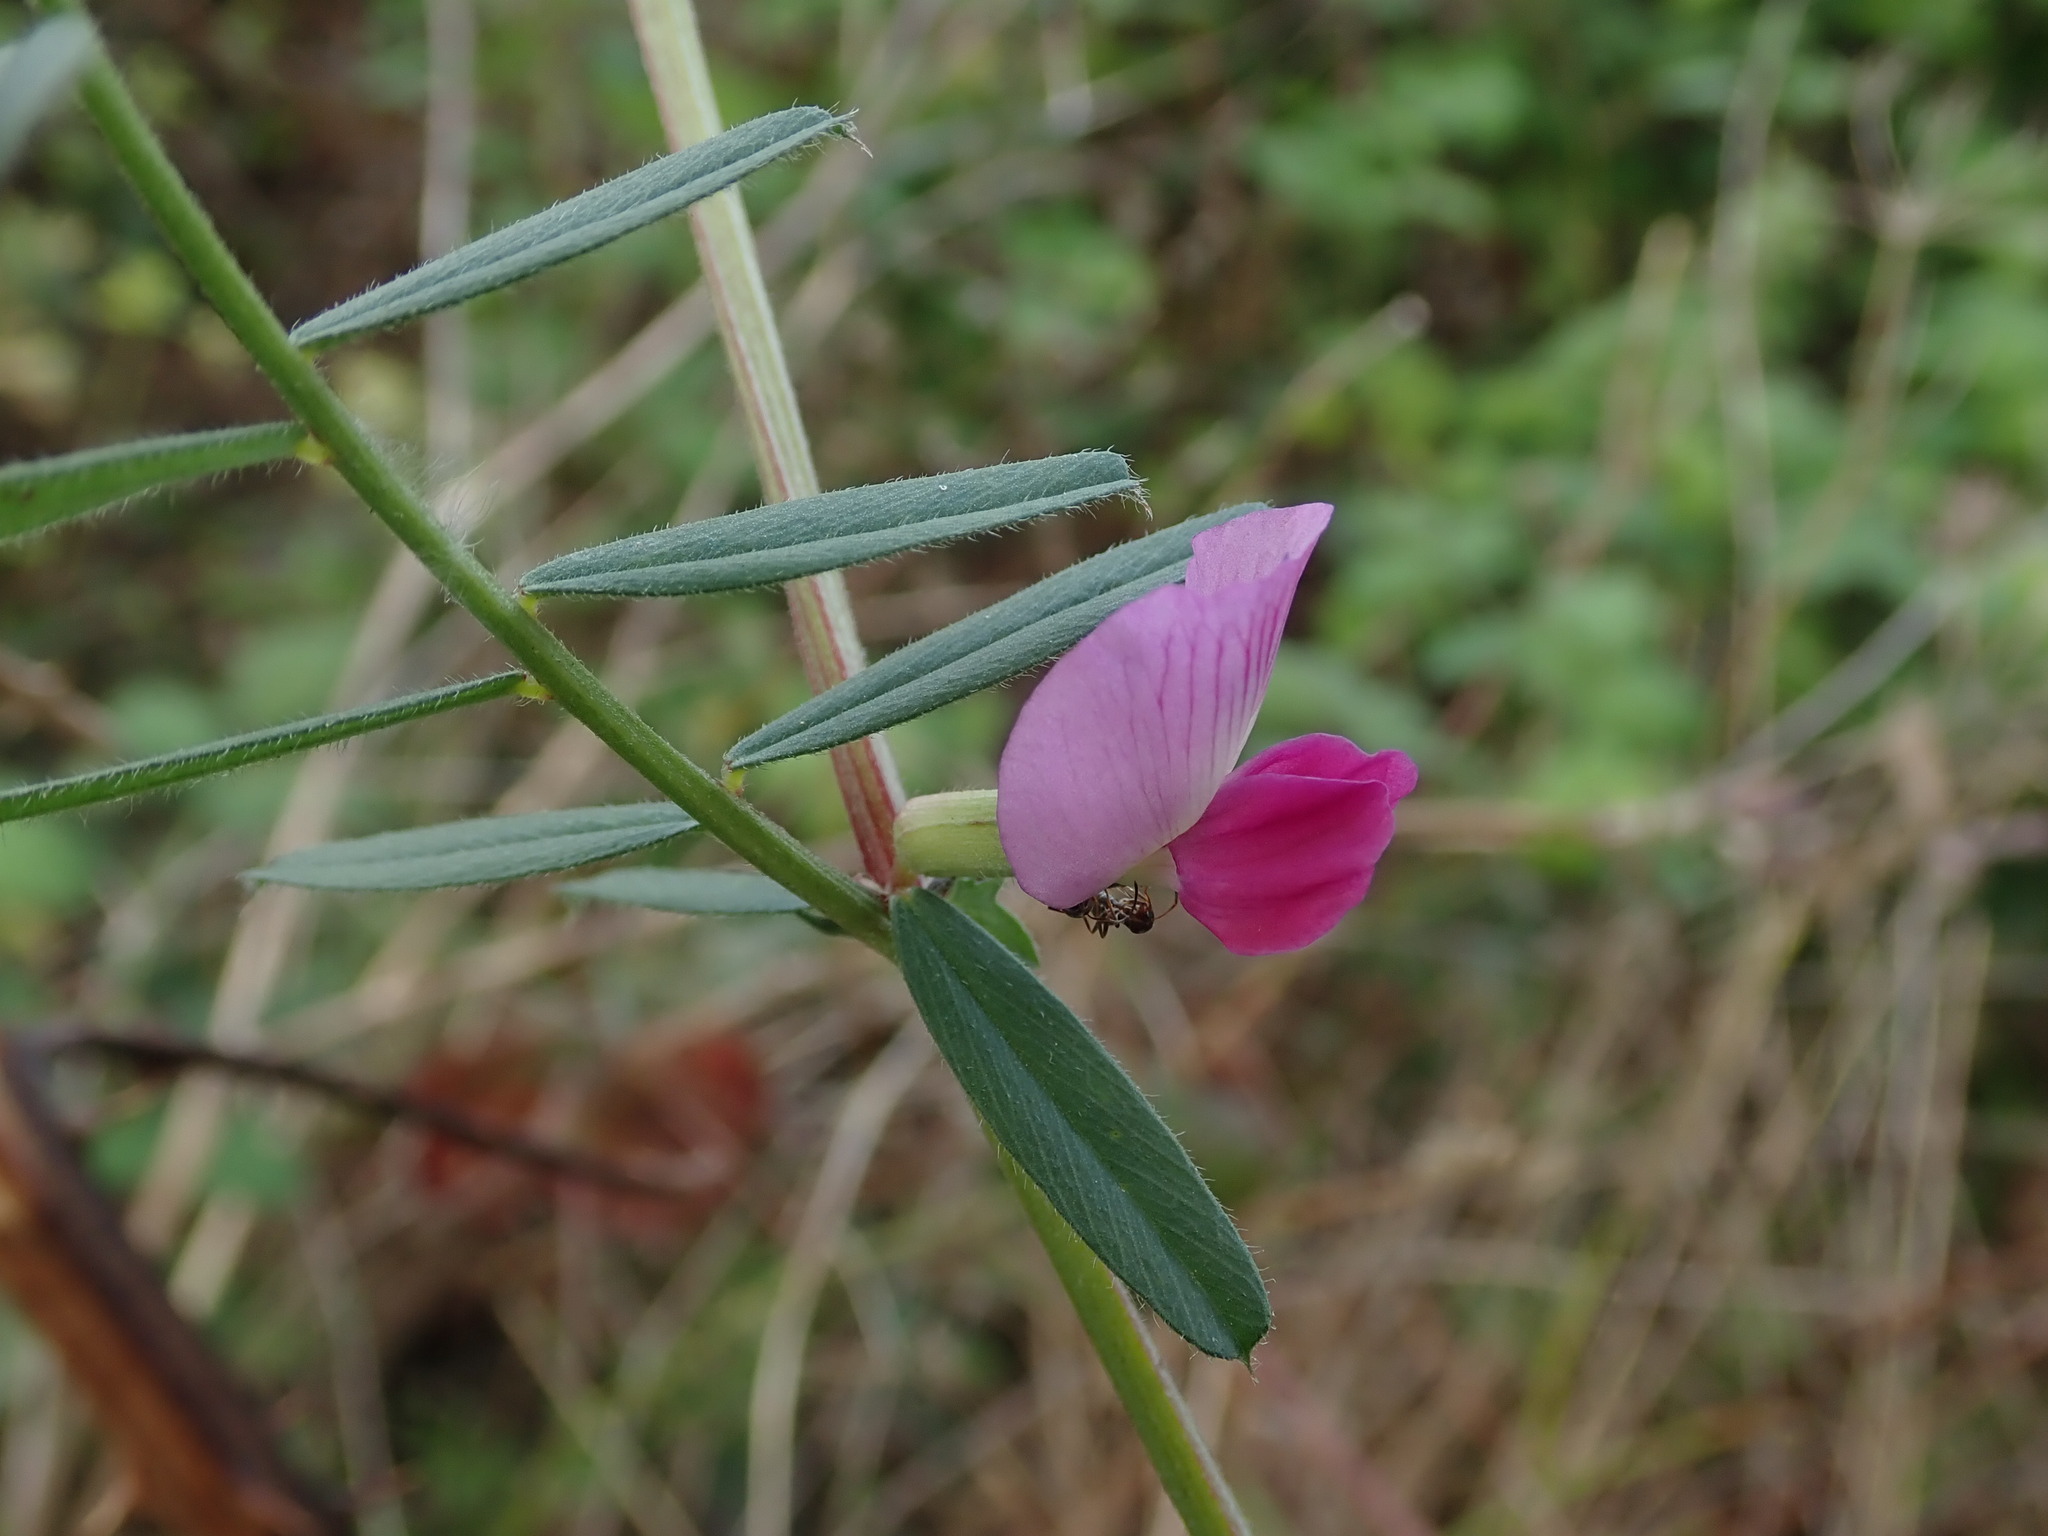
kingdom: Plantae
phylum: Tracheophyta
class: Magnoliopsida
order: Fabales
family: Fabaceae
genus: Vicia
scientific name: Vicia sativa
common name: Garden vetch
